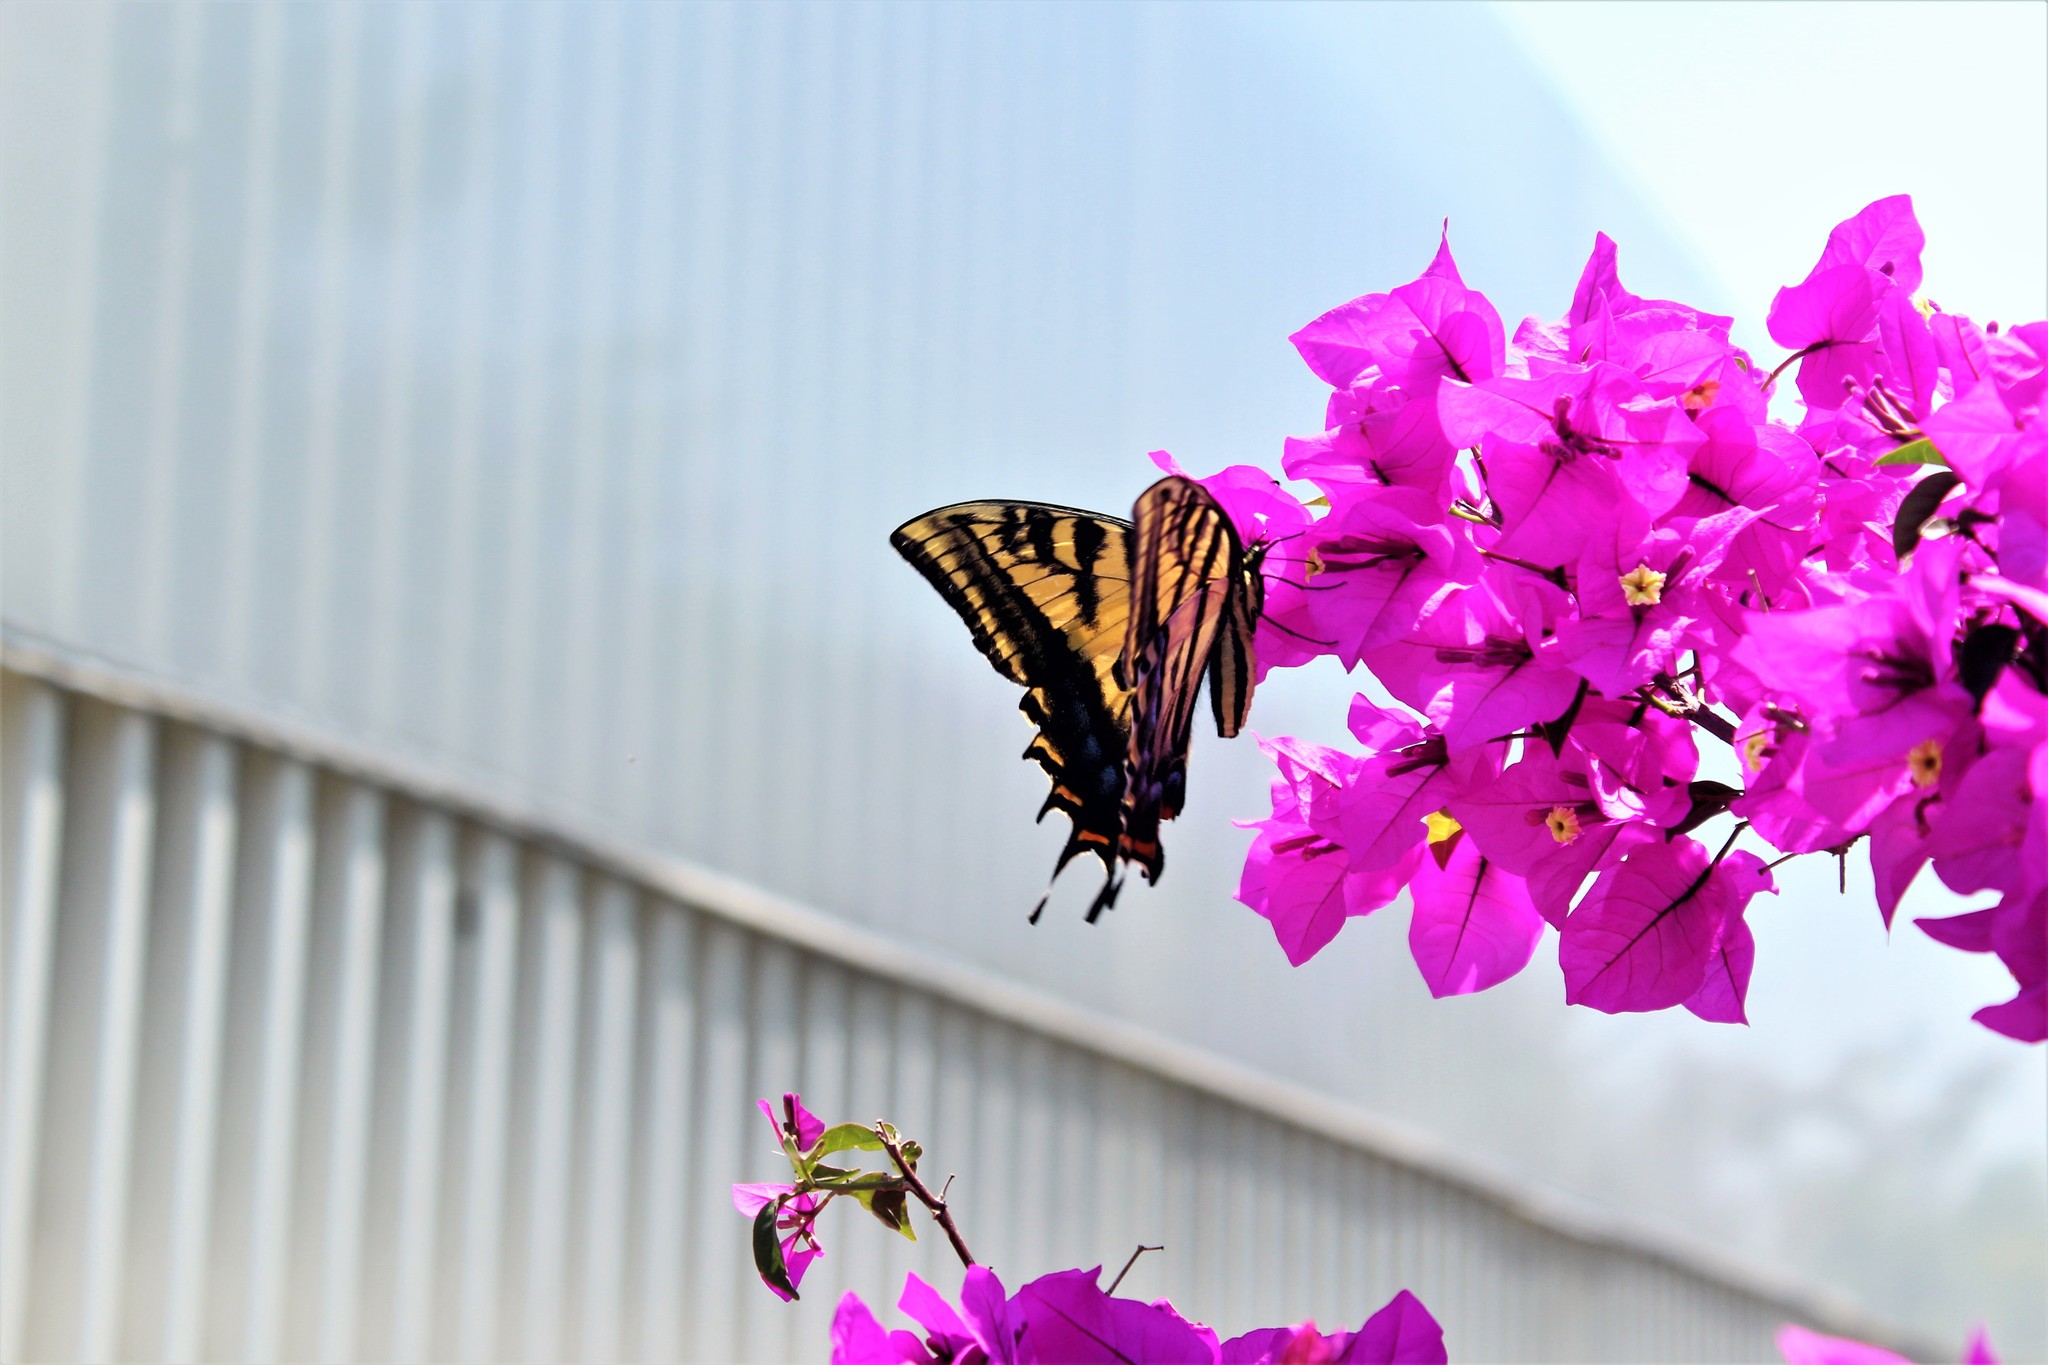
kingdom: Animalia
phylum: Arthropoda
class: Insecta
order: Lepidoptera
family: Papilionidae
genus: Papilio
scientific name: Papilio multicaudata
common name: Two-tailed tiger swallowtail
